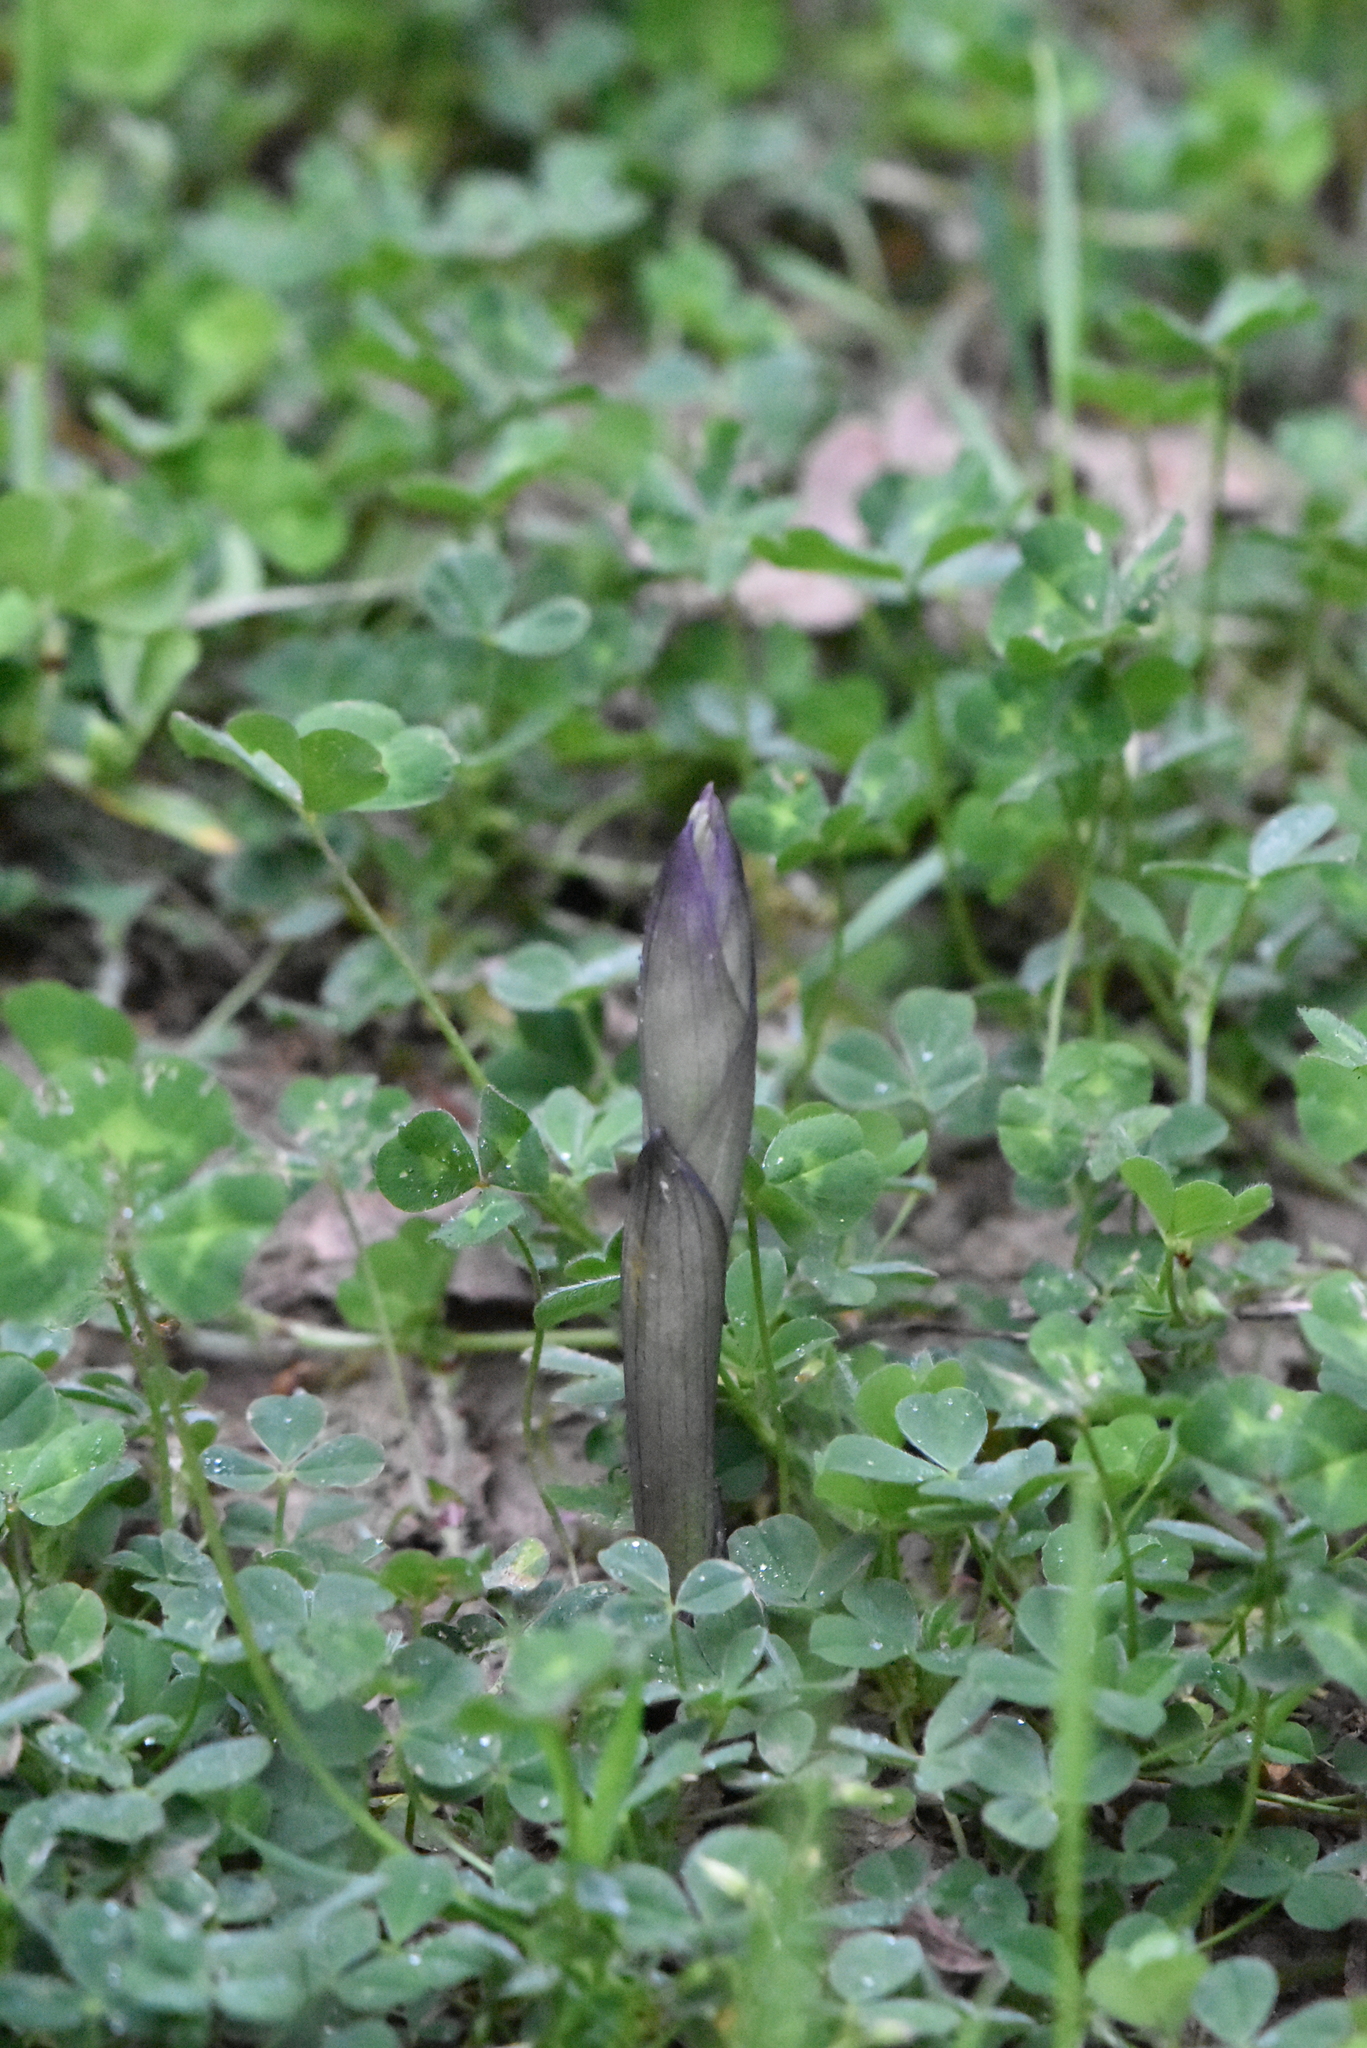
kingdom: Plantae
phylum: Tracheophyta
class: Liliopsida
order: Asparagales
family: Orchidaceae
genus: Limodorum
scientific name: Limodorum abortivum
